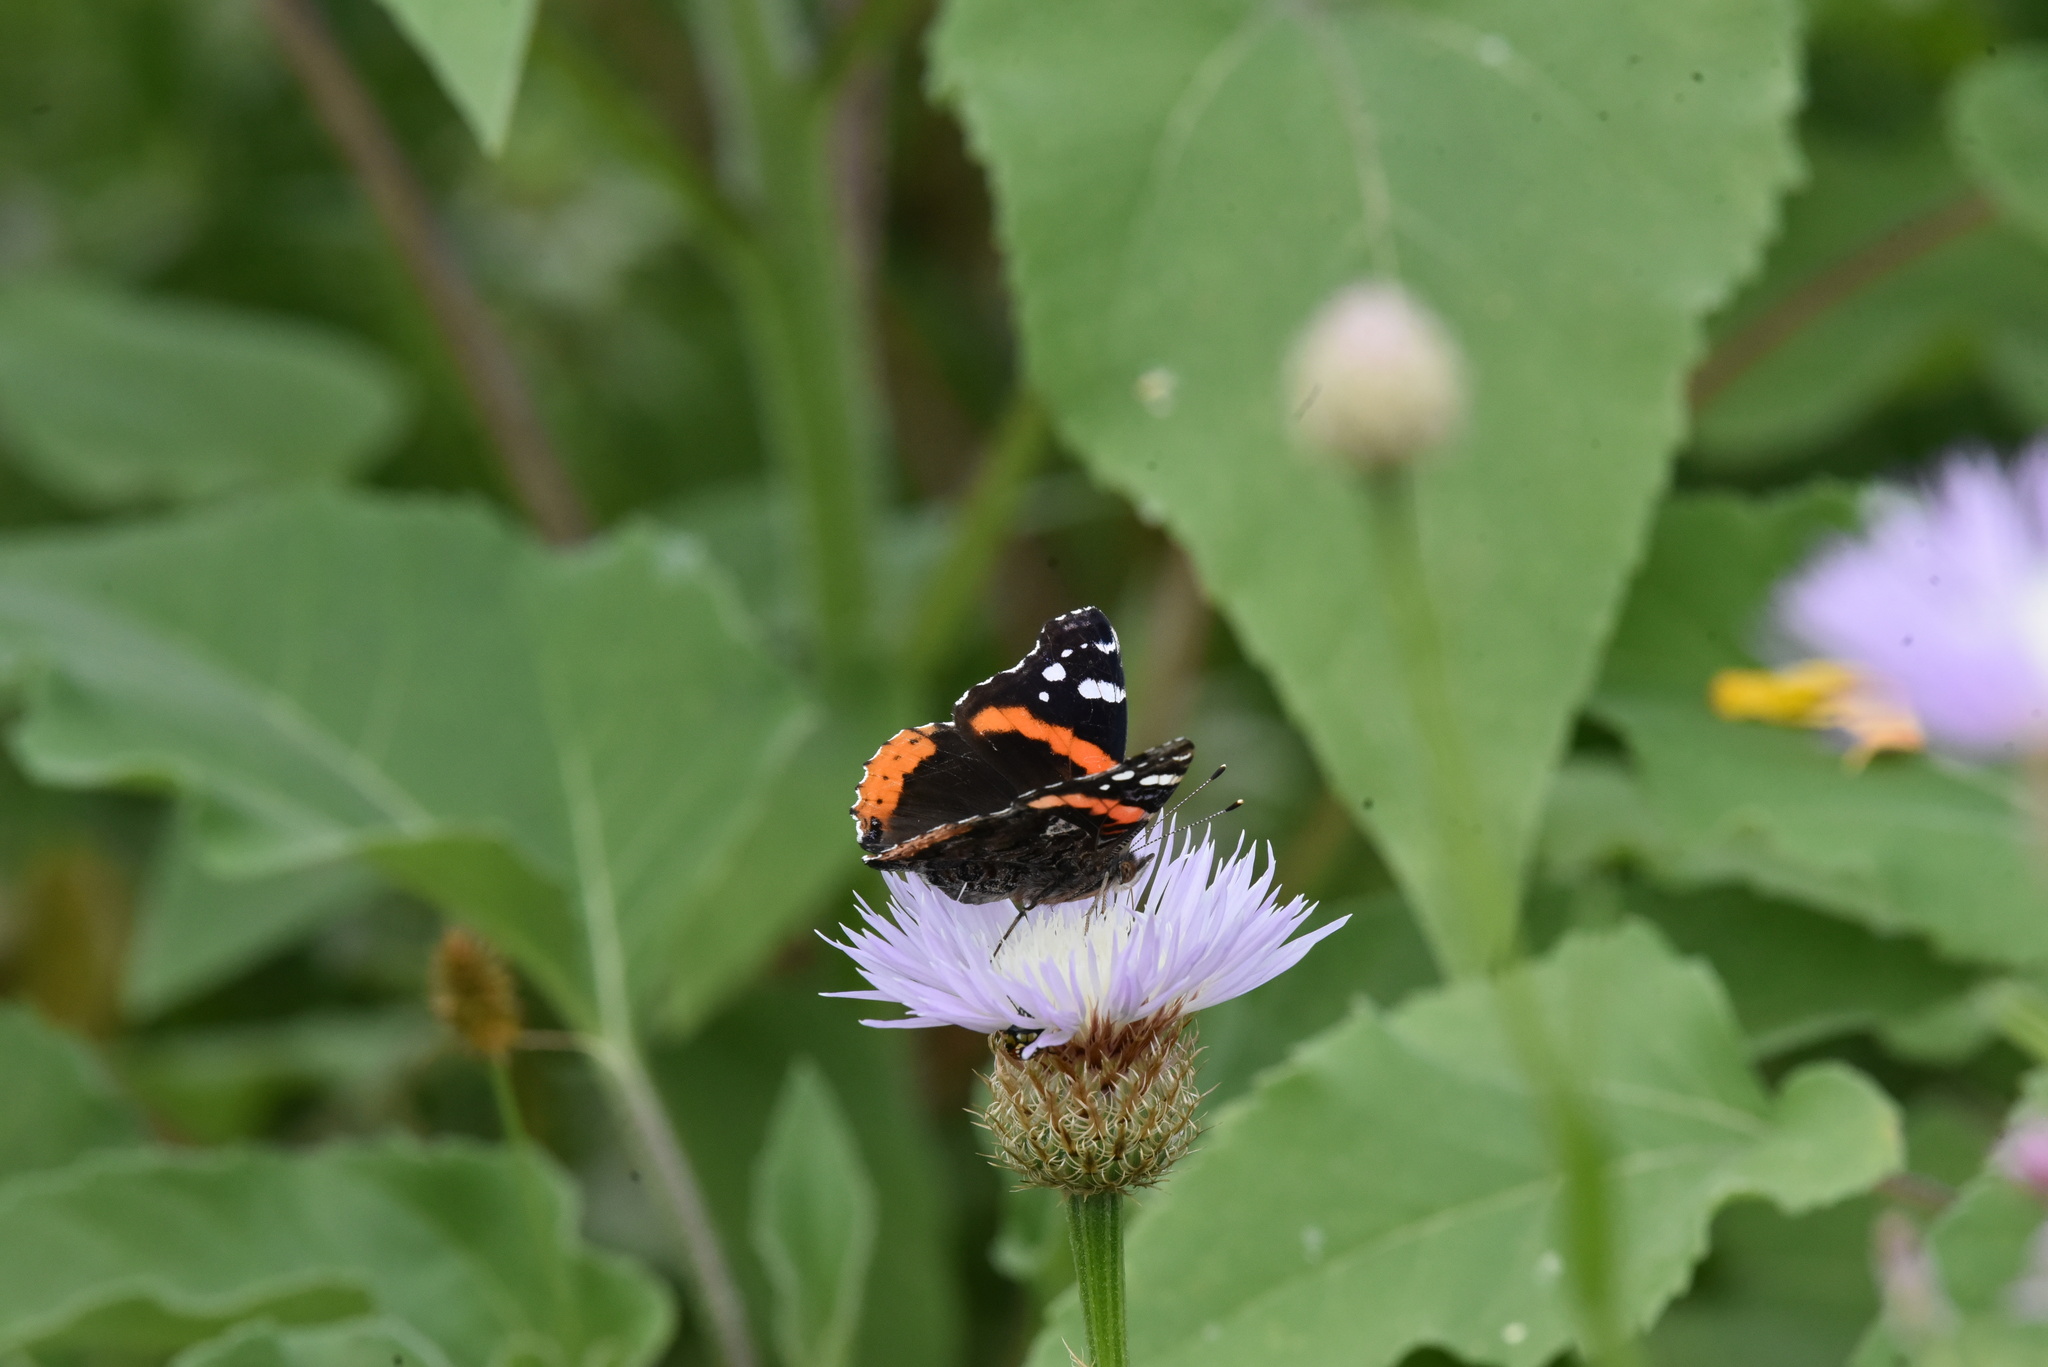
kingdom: Animalia
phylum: Arthropoda
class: Insecta
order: Lepidoptera
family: Nymphalidae
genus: Vanessa
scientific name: Vanessa atalanta
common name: Red admiral
